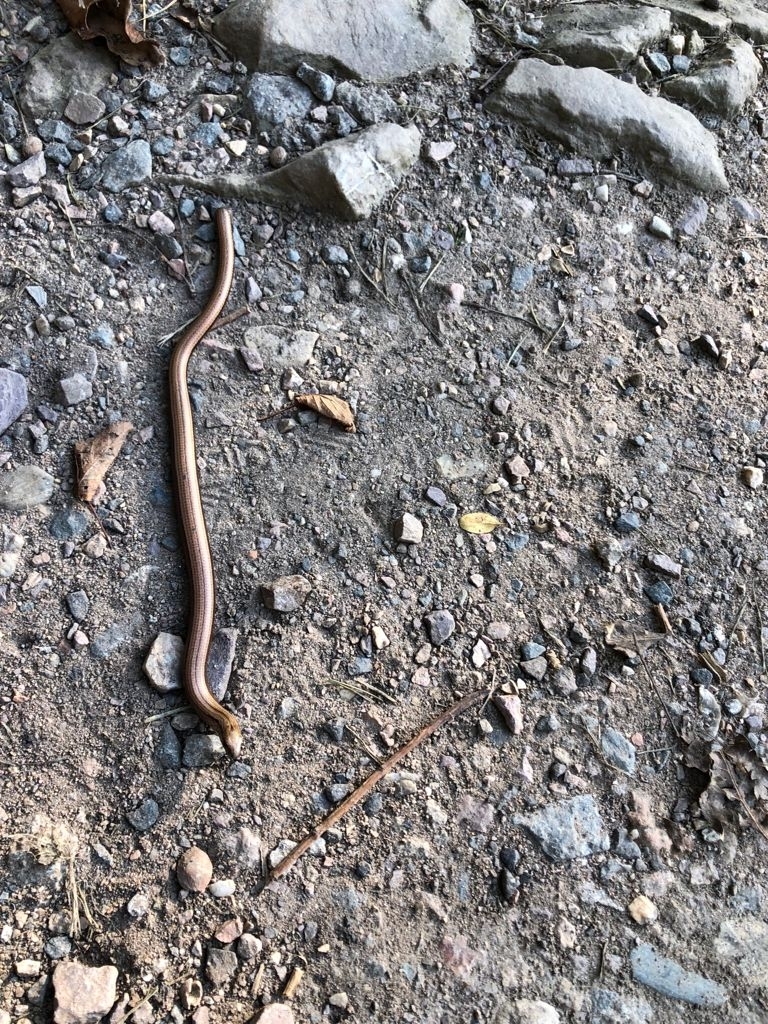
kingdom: Animalia
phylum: Chordata
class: Squamata
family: Anguidae
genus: Anguis
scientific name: Anguis fragilis
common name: Slow worm
